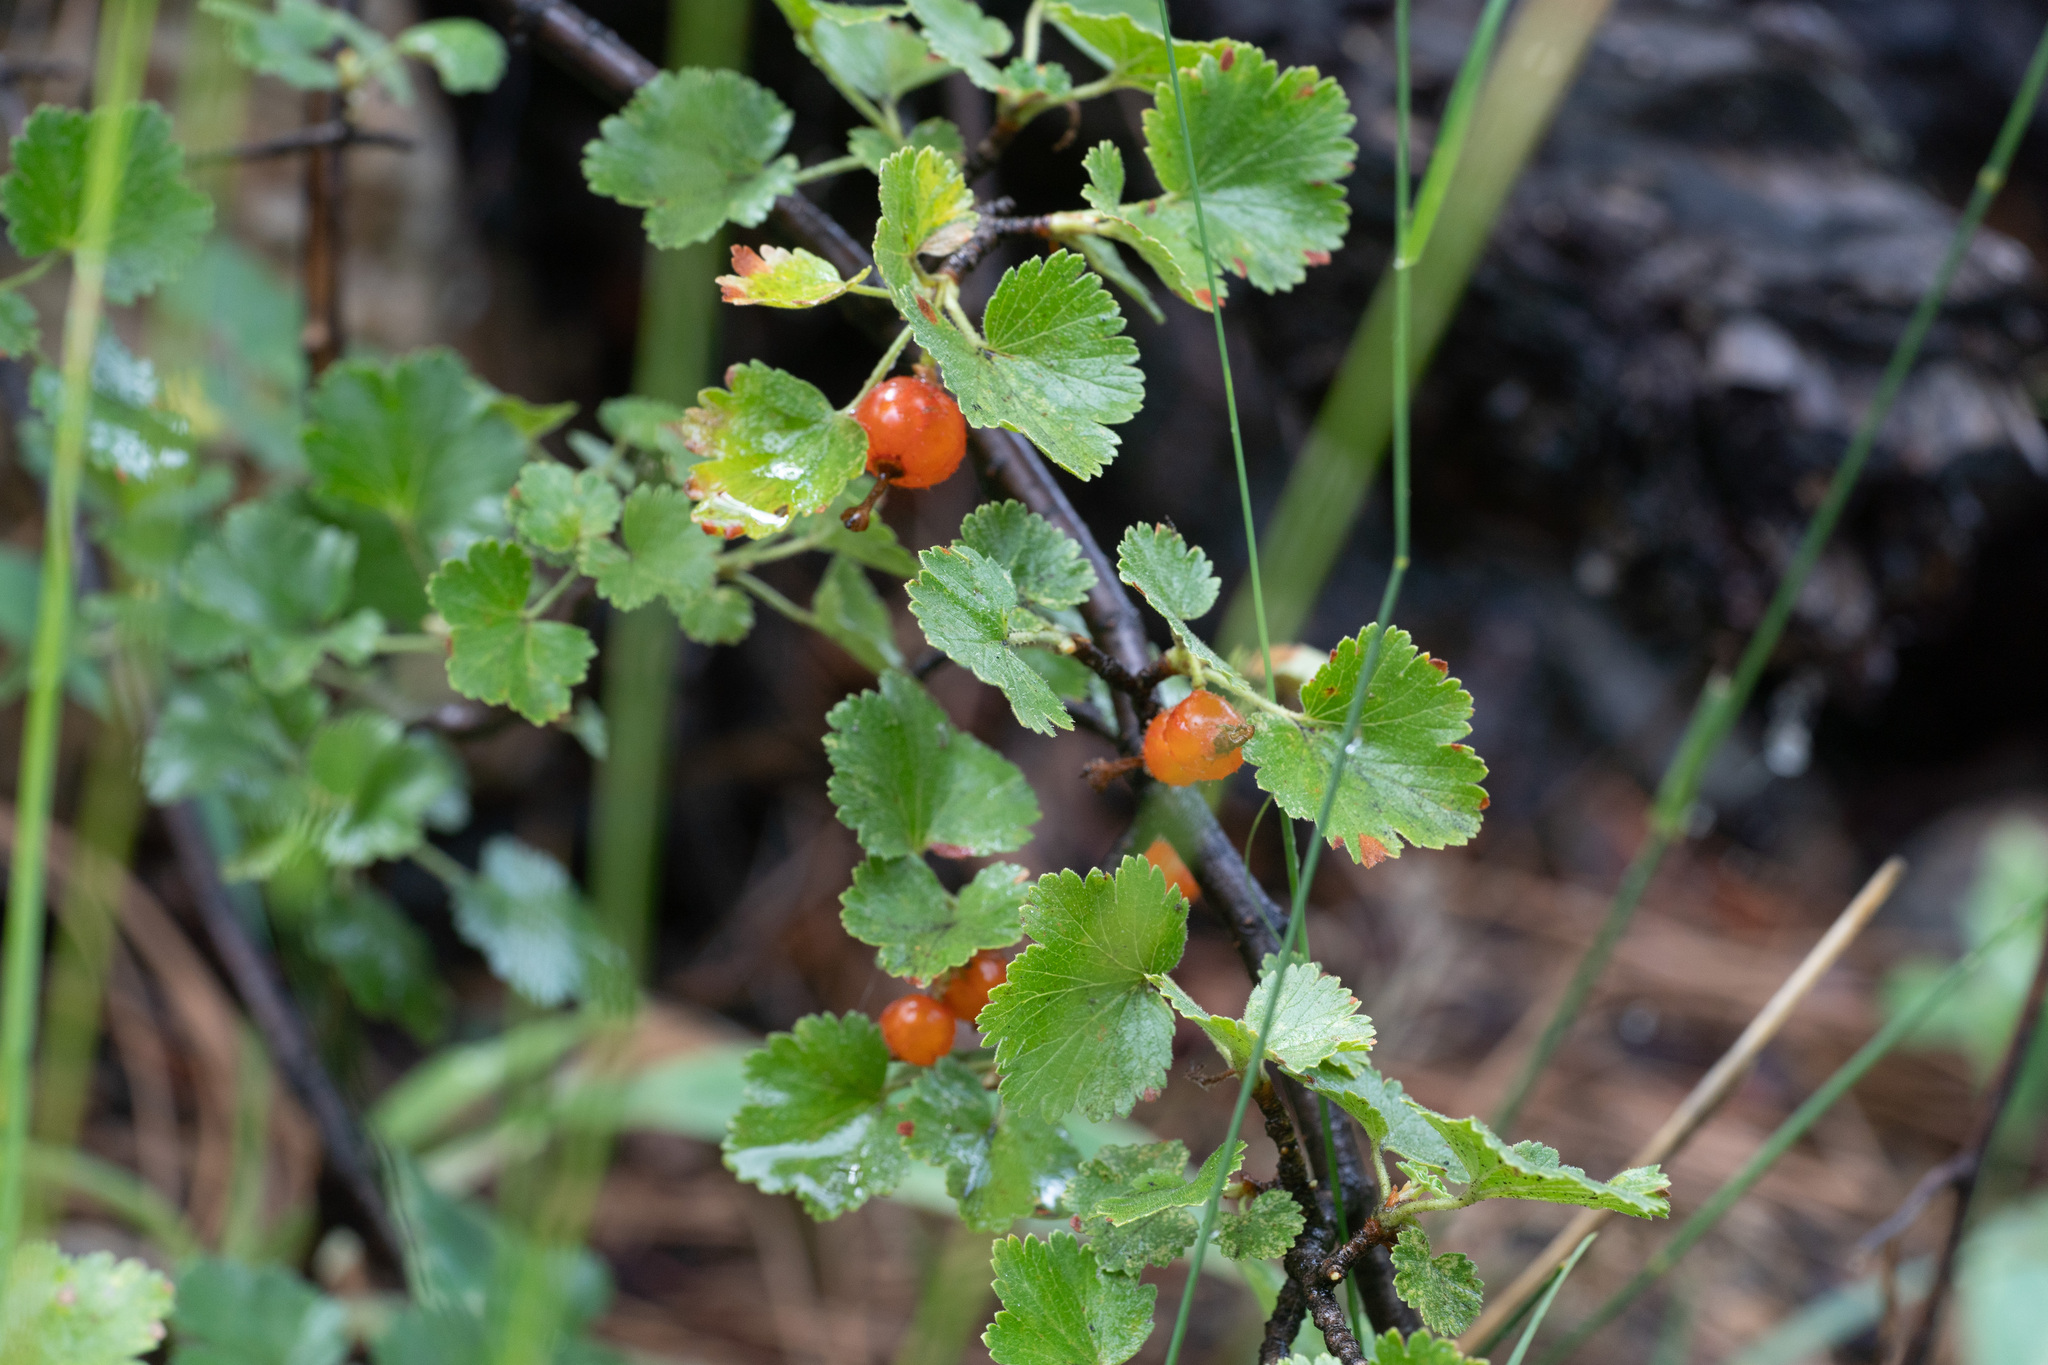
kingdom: Plantae
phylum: Tracheophyta
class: Magnoliopsida
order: Saxifragales
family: Grossulariaceae
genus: Ribes
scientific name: Ribes cereum
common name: Wax currant
